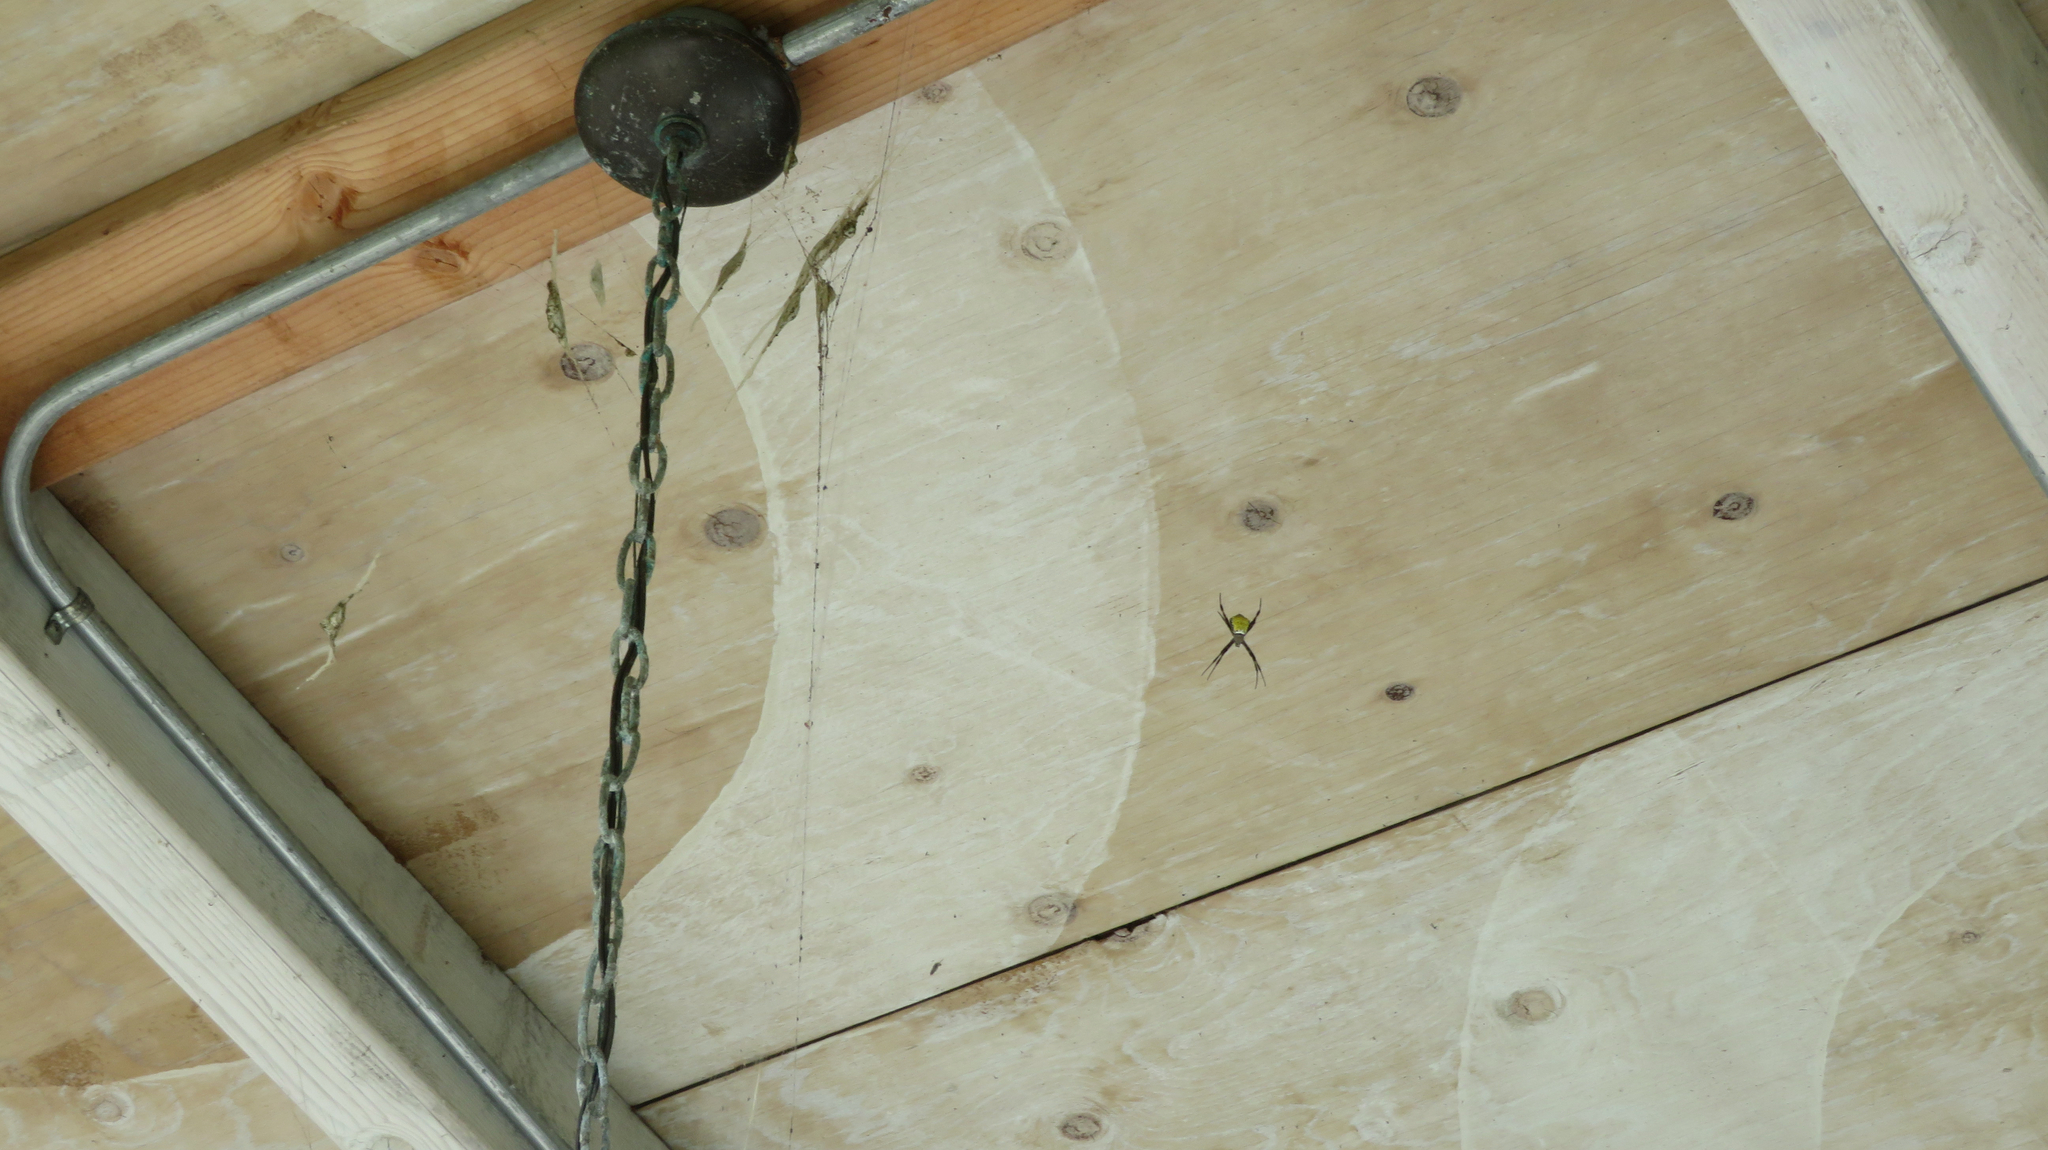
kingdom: Animalia
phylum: Arthropoda
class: Arachnida
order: Araneae
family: Araneidae
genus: Argiope
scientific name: Argiope appensa
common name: Garden spider
